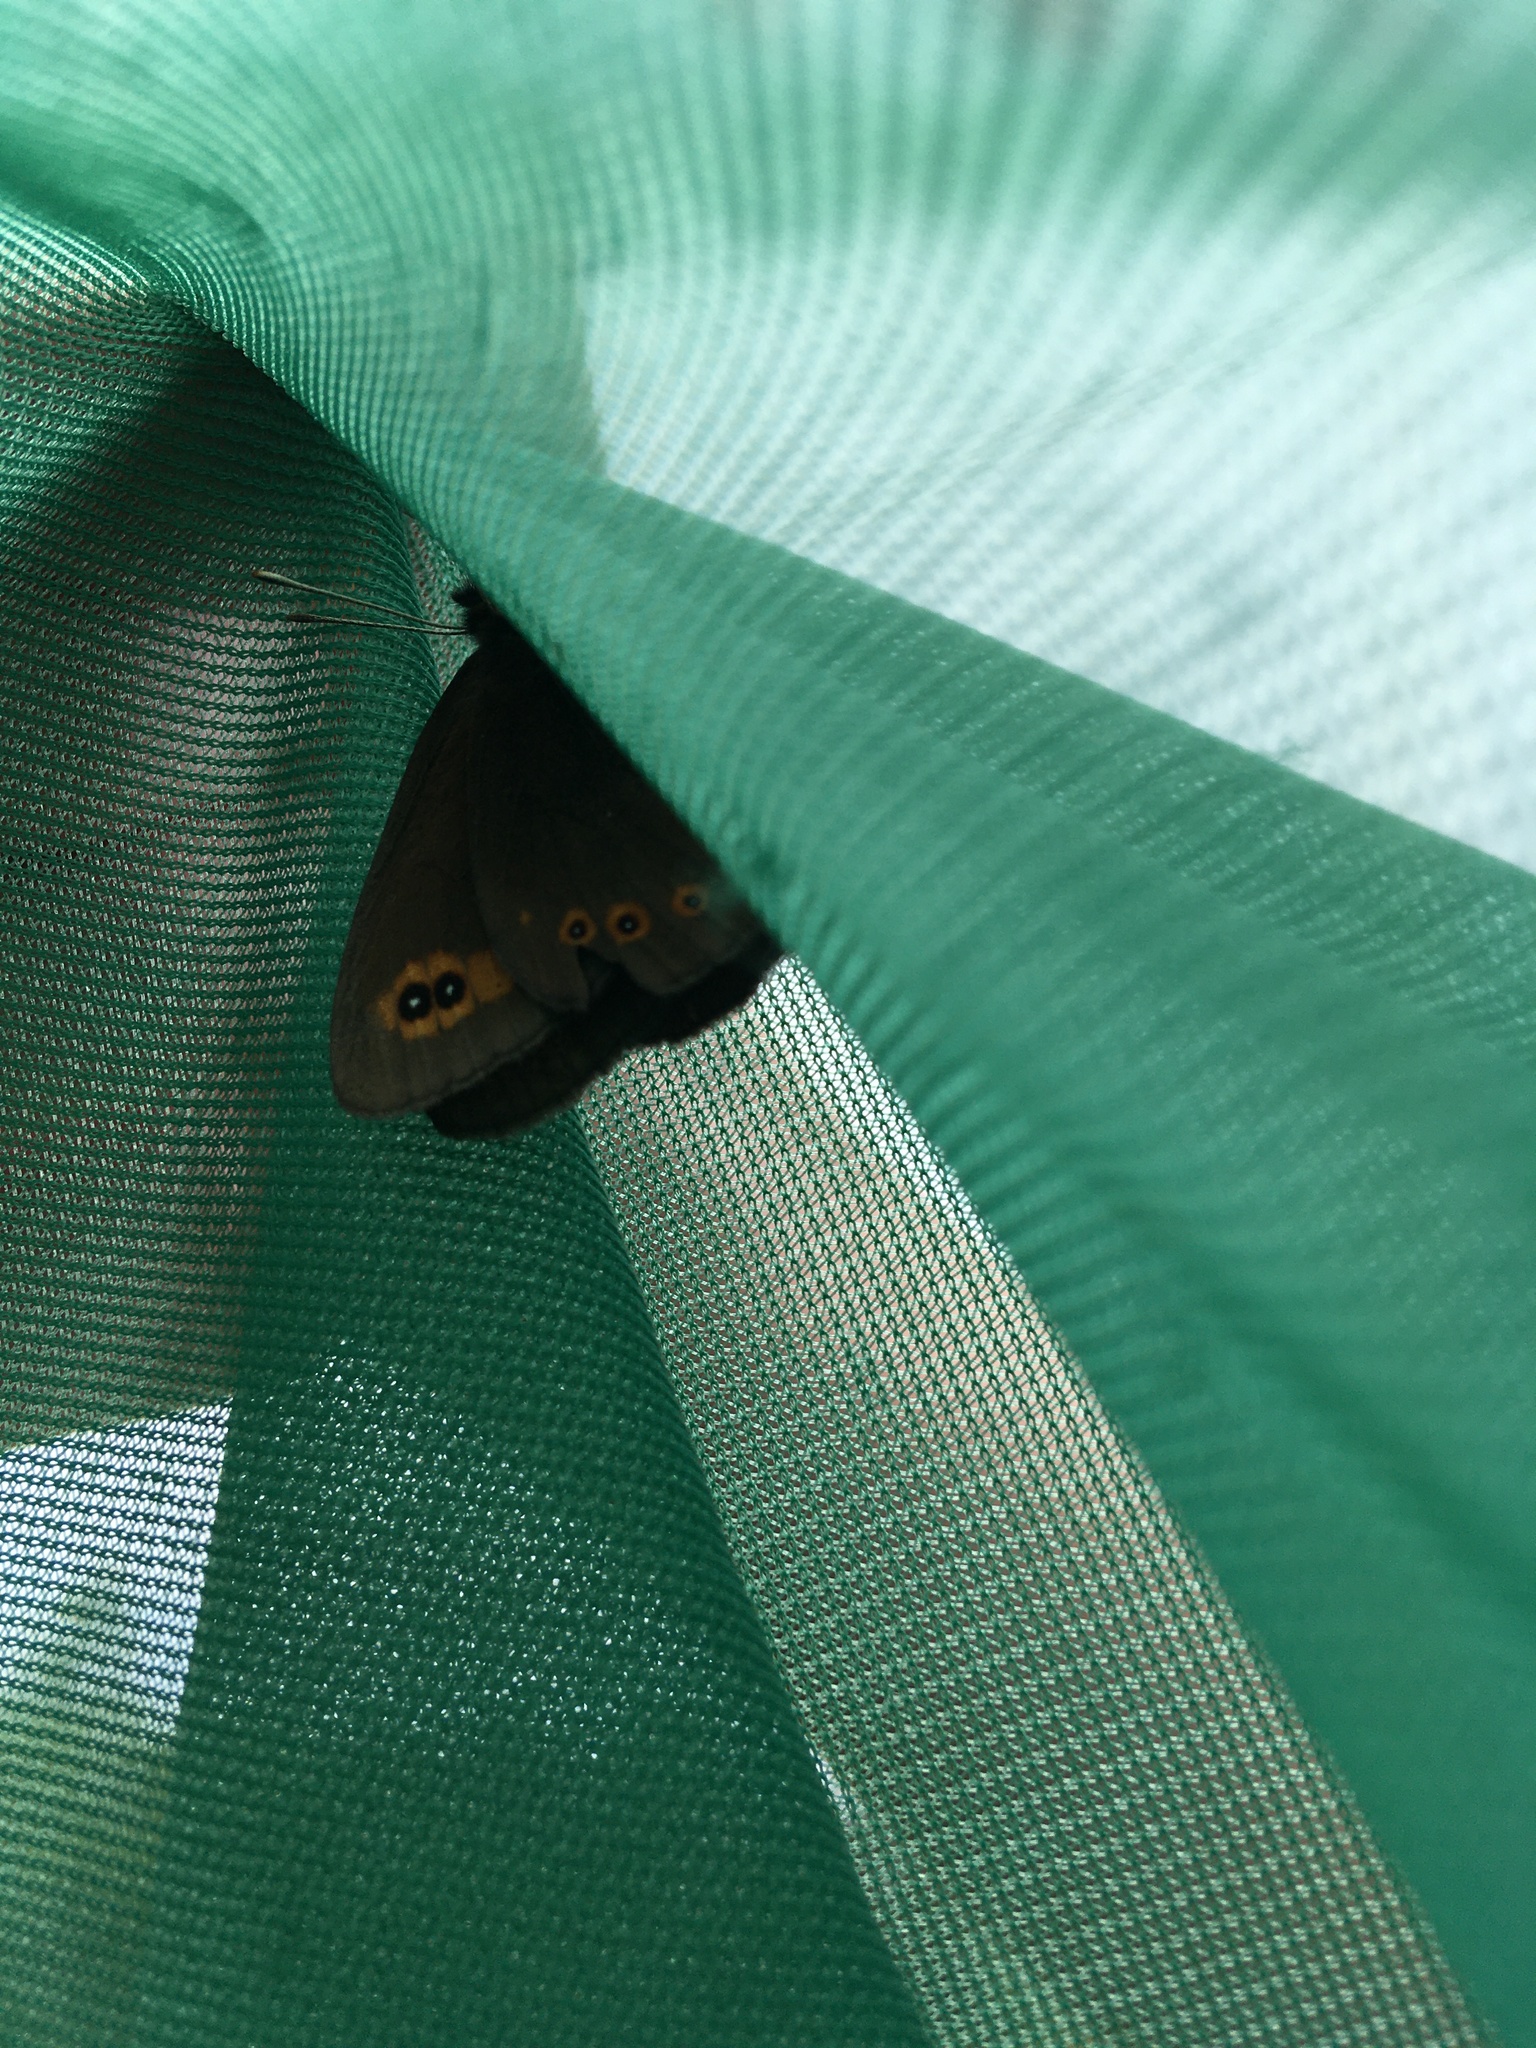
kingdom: Animalia
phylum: Arthropoda
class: Insecta
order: Lepidoptera
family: Nymphalidae
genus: Erebia
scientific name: Erebia medusa
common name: Woodland ringlet
